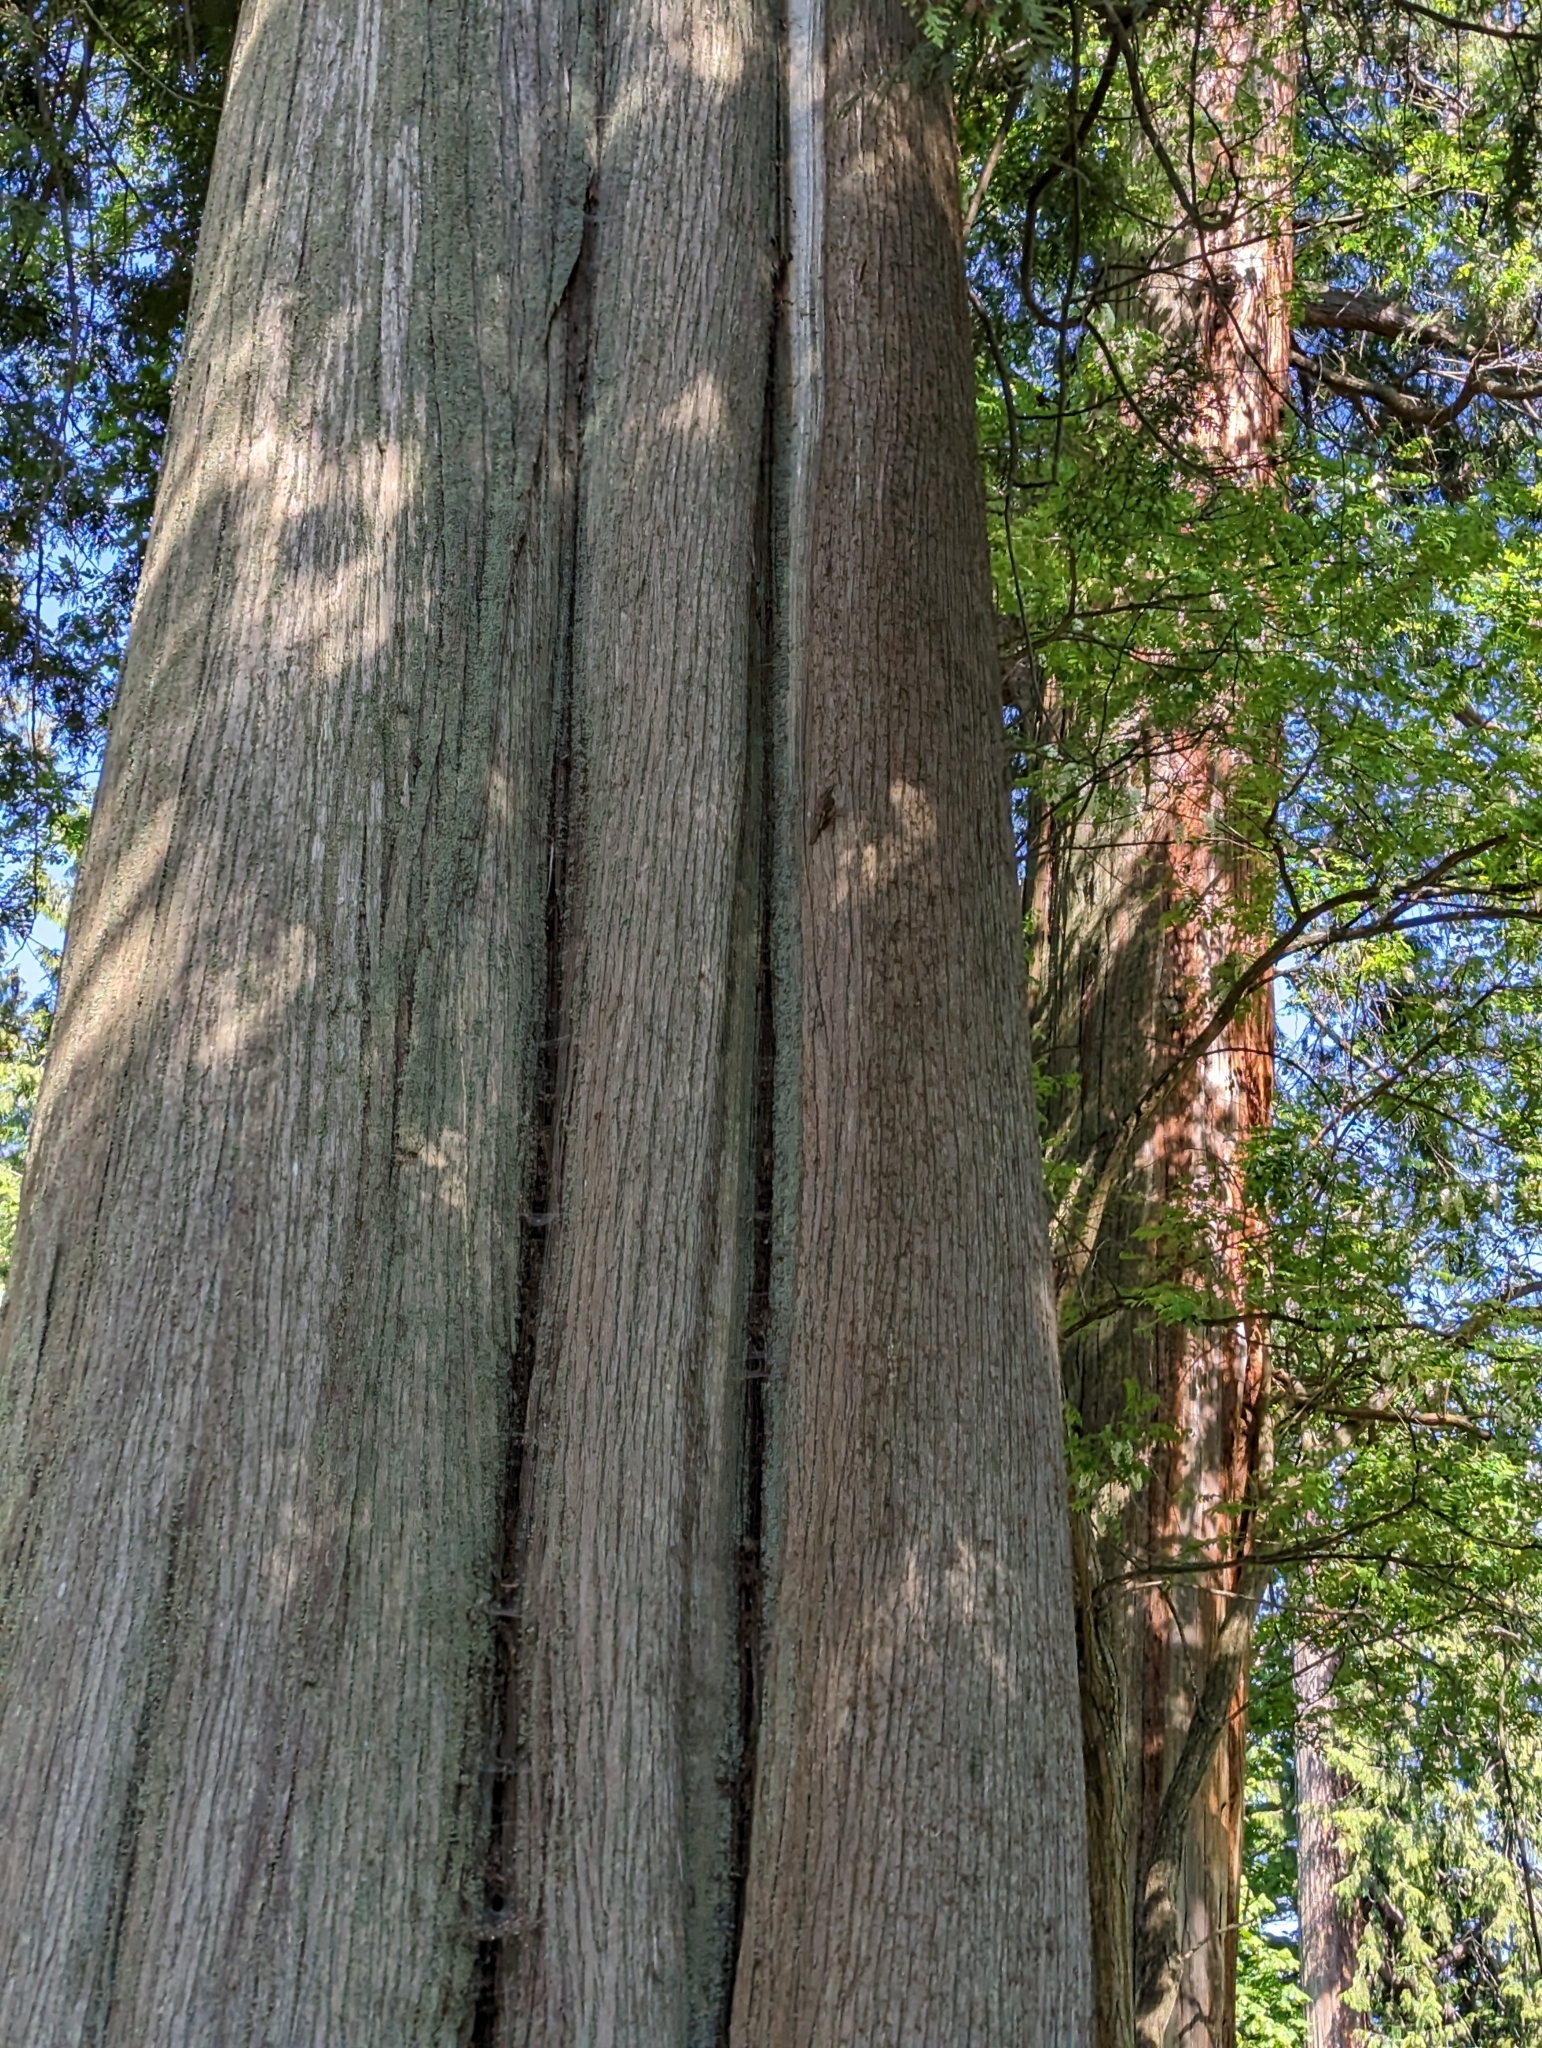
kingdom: Animalia
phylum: Chordata
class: Aves
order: Passeriformes
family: Certhiidae
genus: Certhia
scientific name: Certhia americana
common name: Brown creeper
